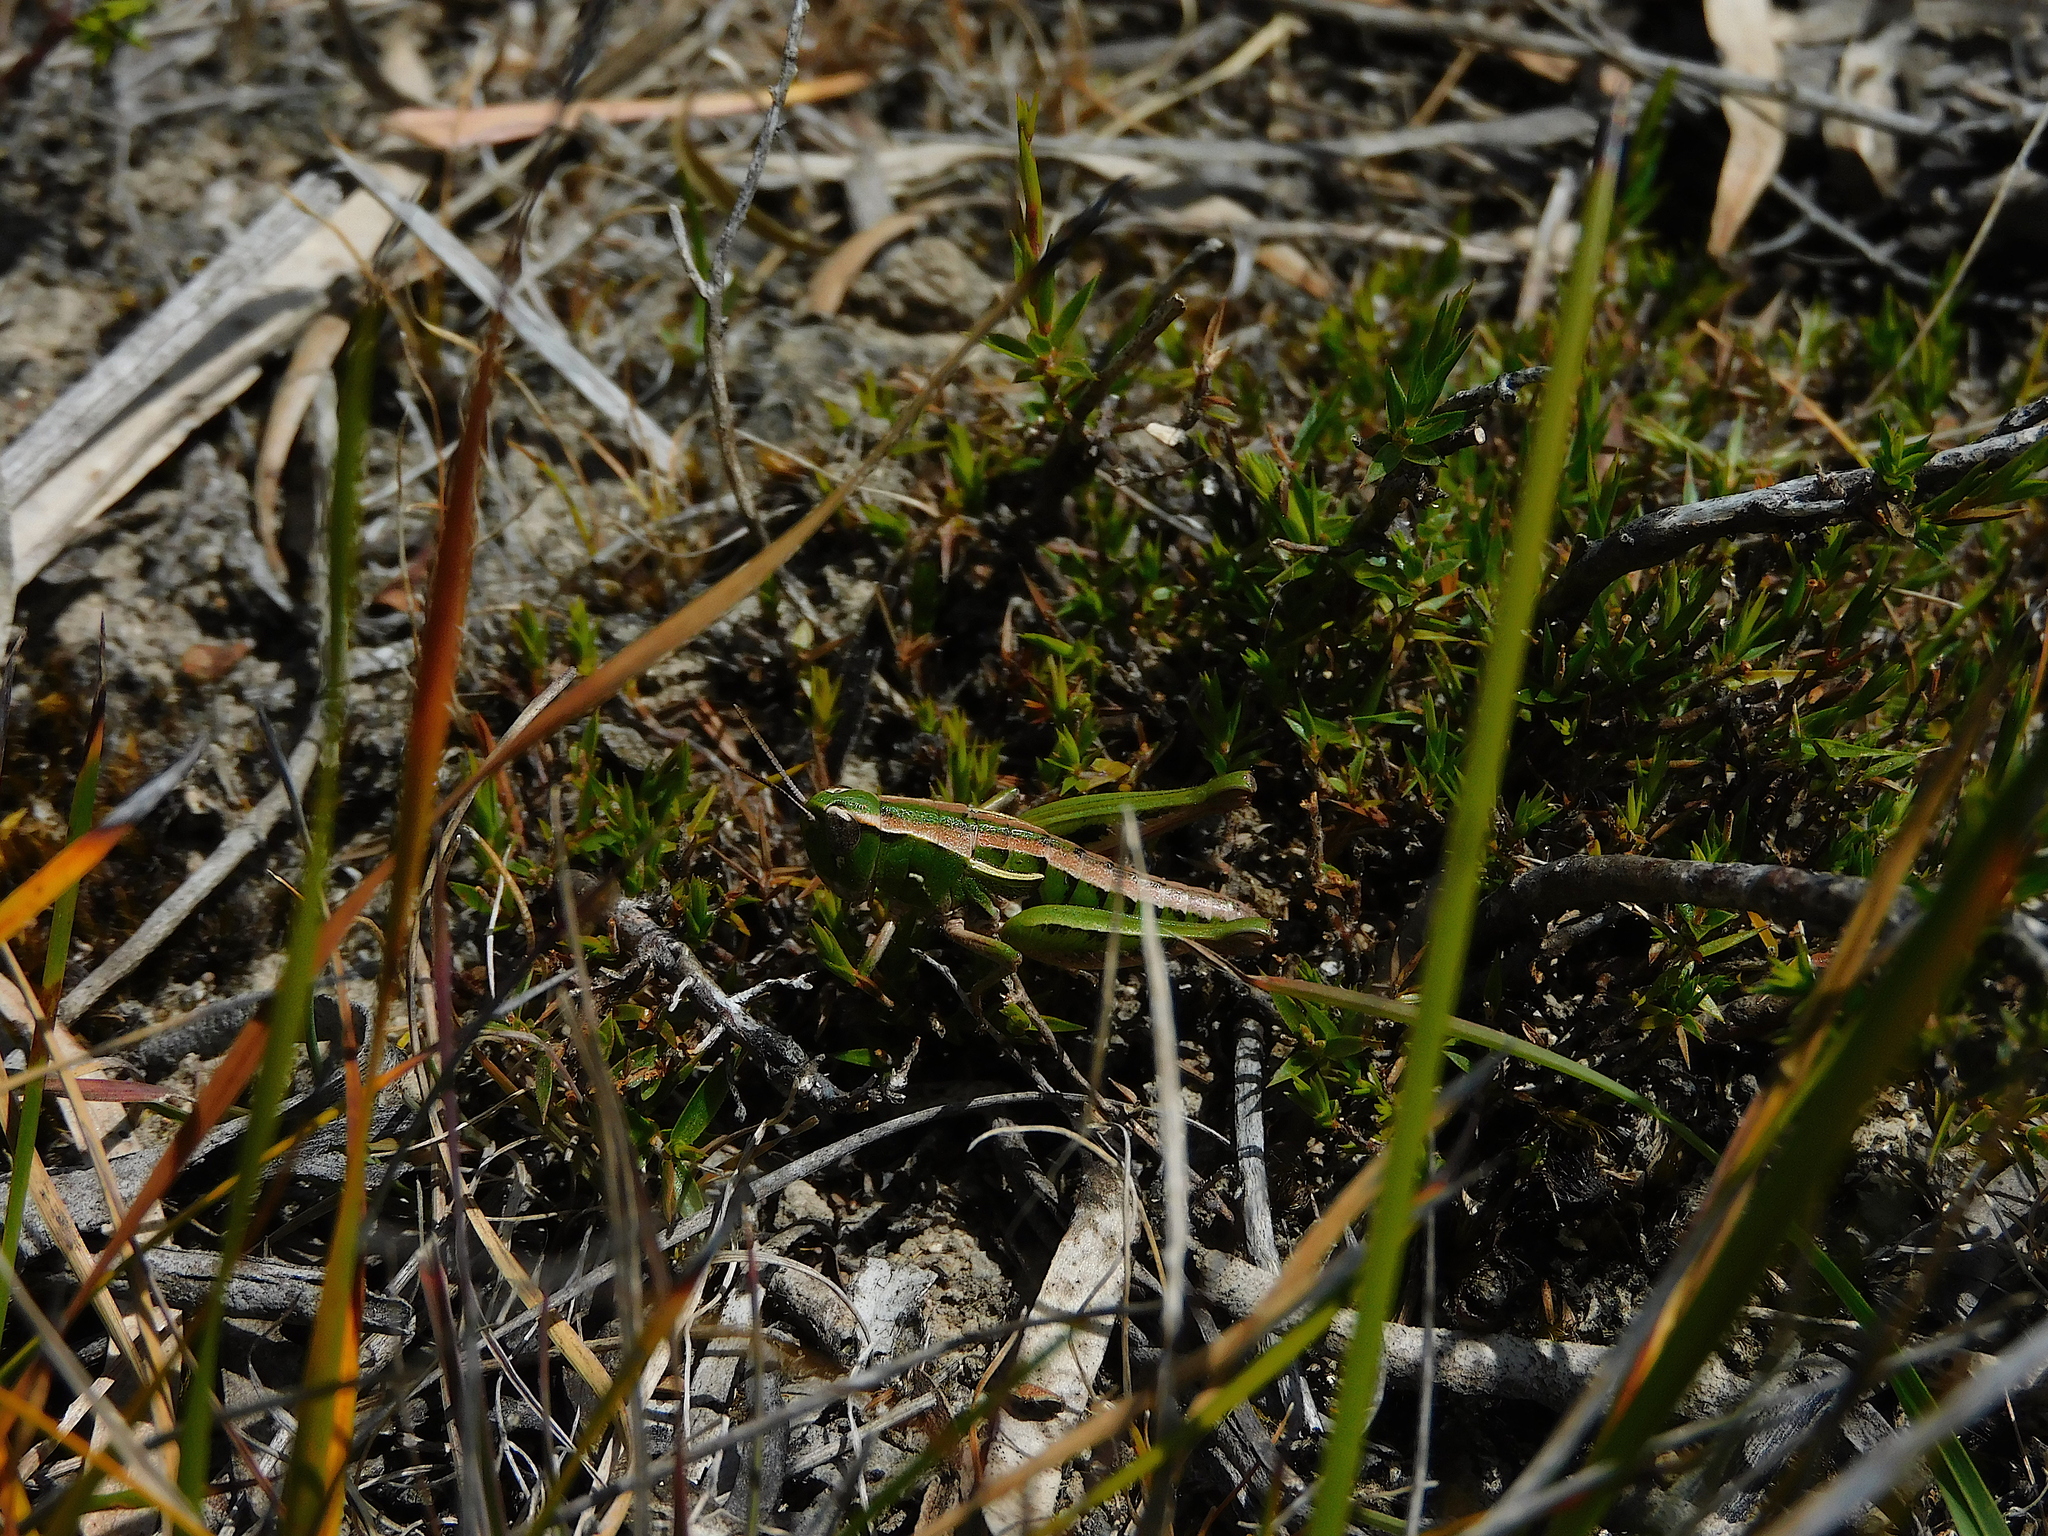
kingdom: Animalia
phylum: Arthropoda
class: Insecta
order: Orthoptera
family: Acrididae
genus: Russalpia
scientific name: Russalpia albertisi
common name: Tassie hopper
